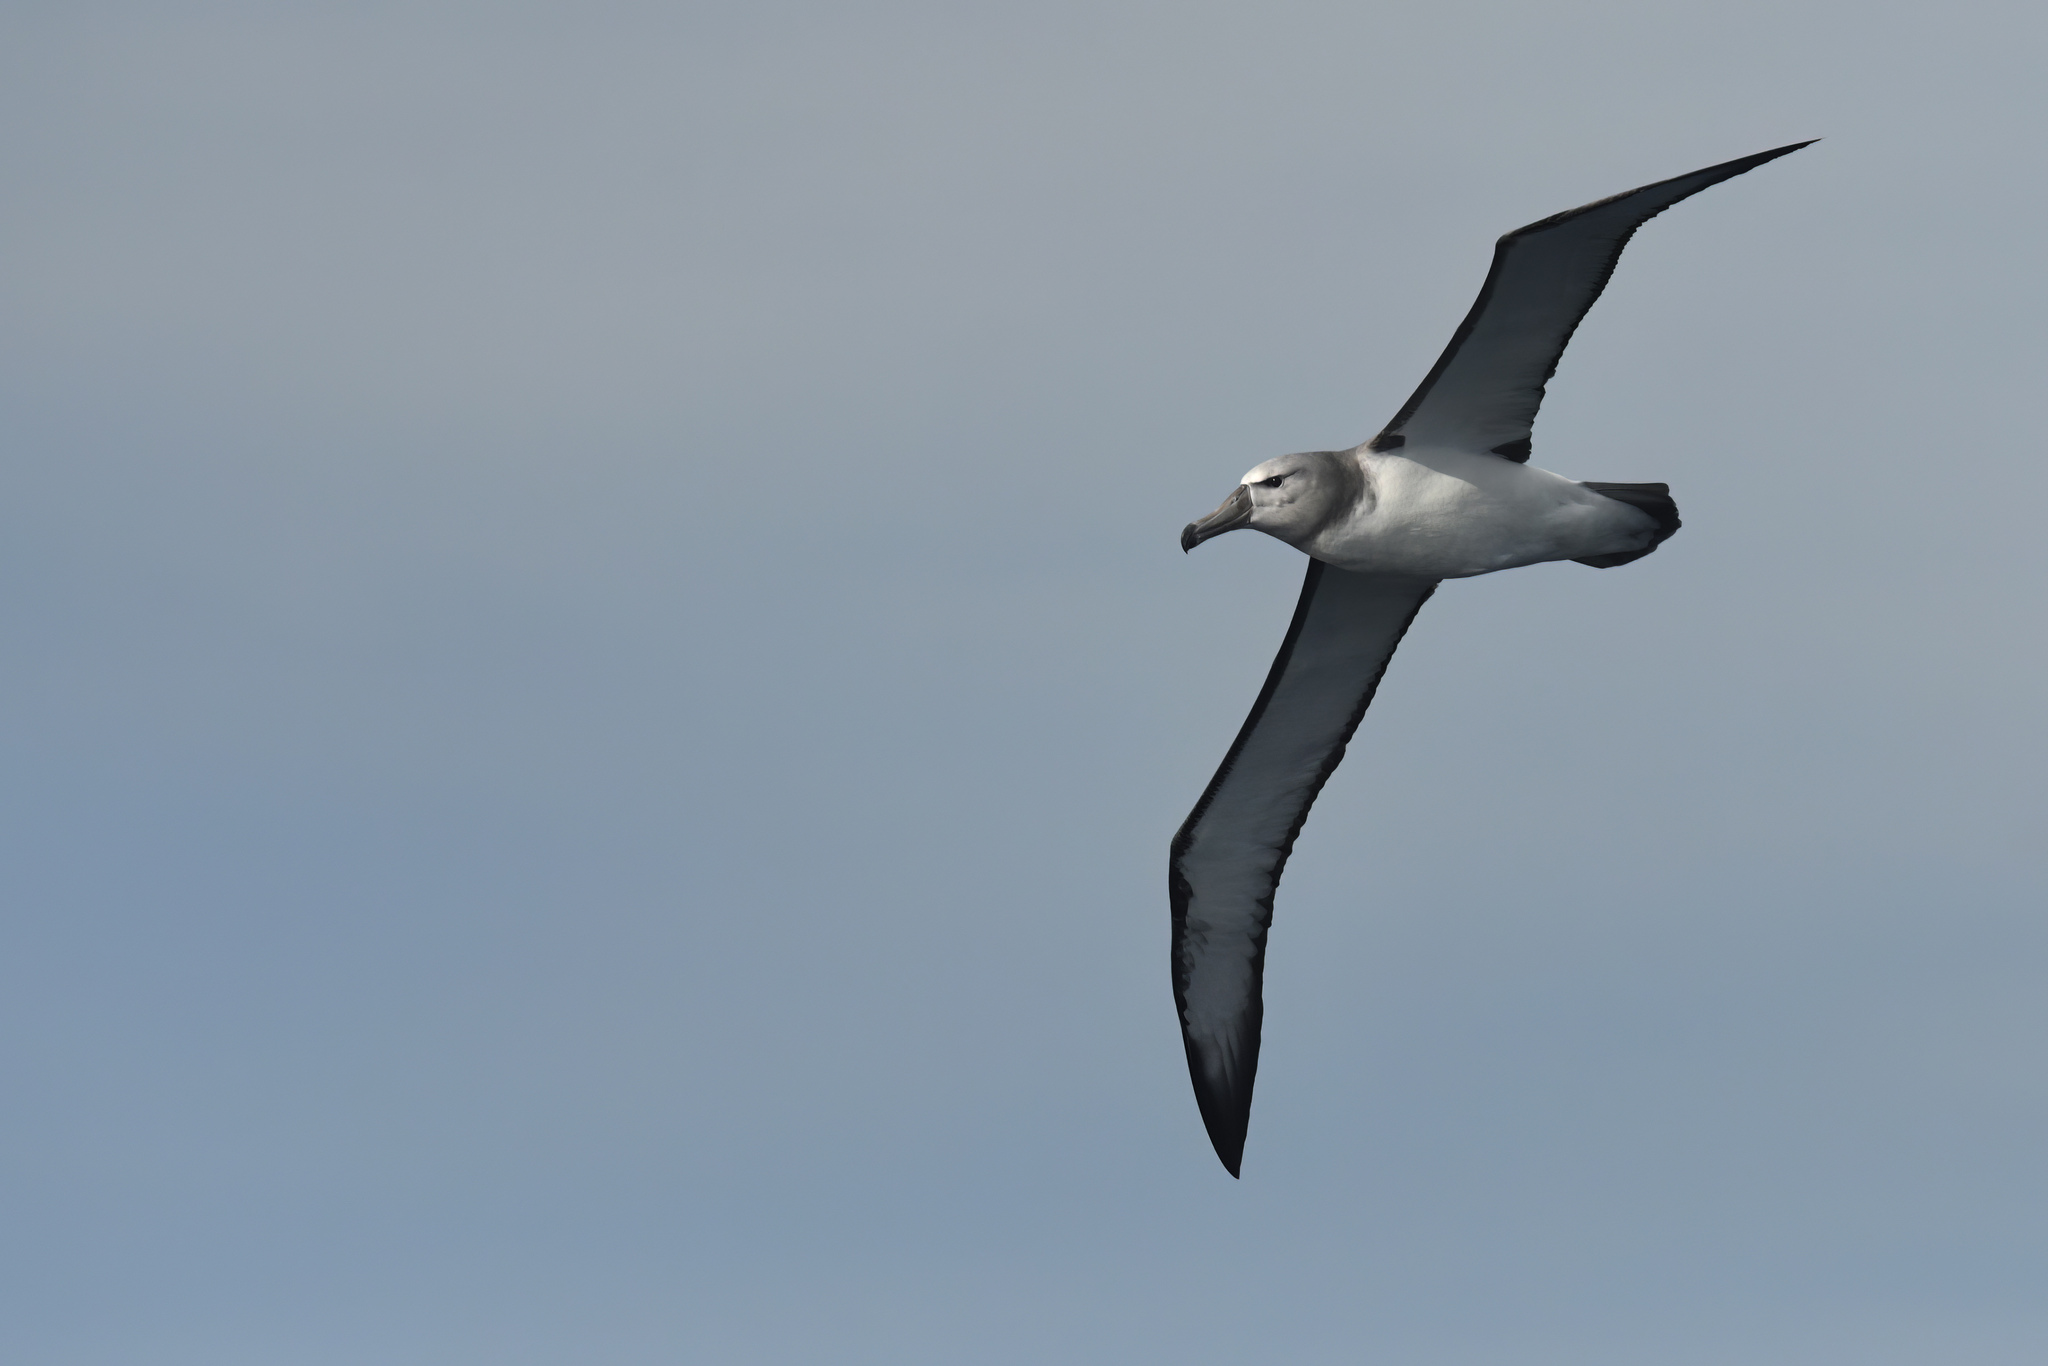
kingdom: Animalia
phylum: Chordata
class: Aves
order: Procellariiformes
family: Diomedeidae
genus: Thalassarche
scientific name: Thalassarche cauta
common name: Shy albatross
